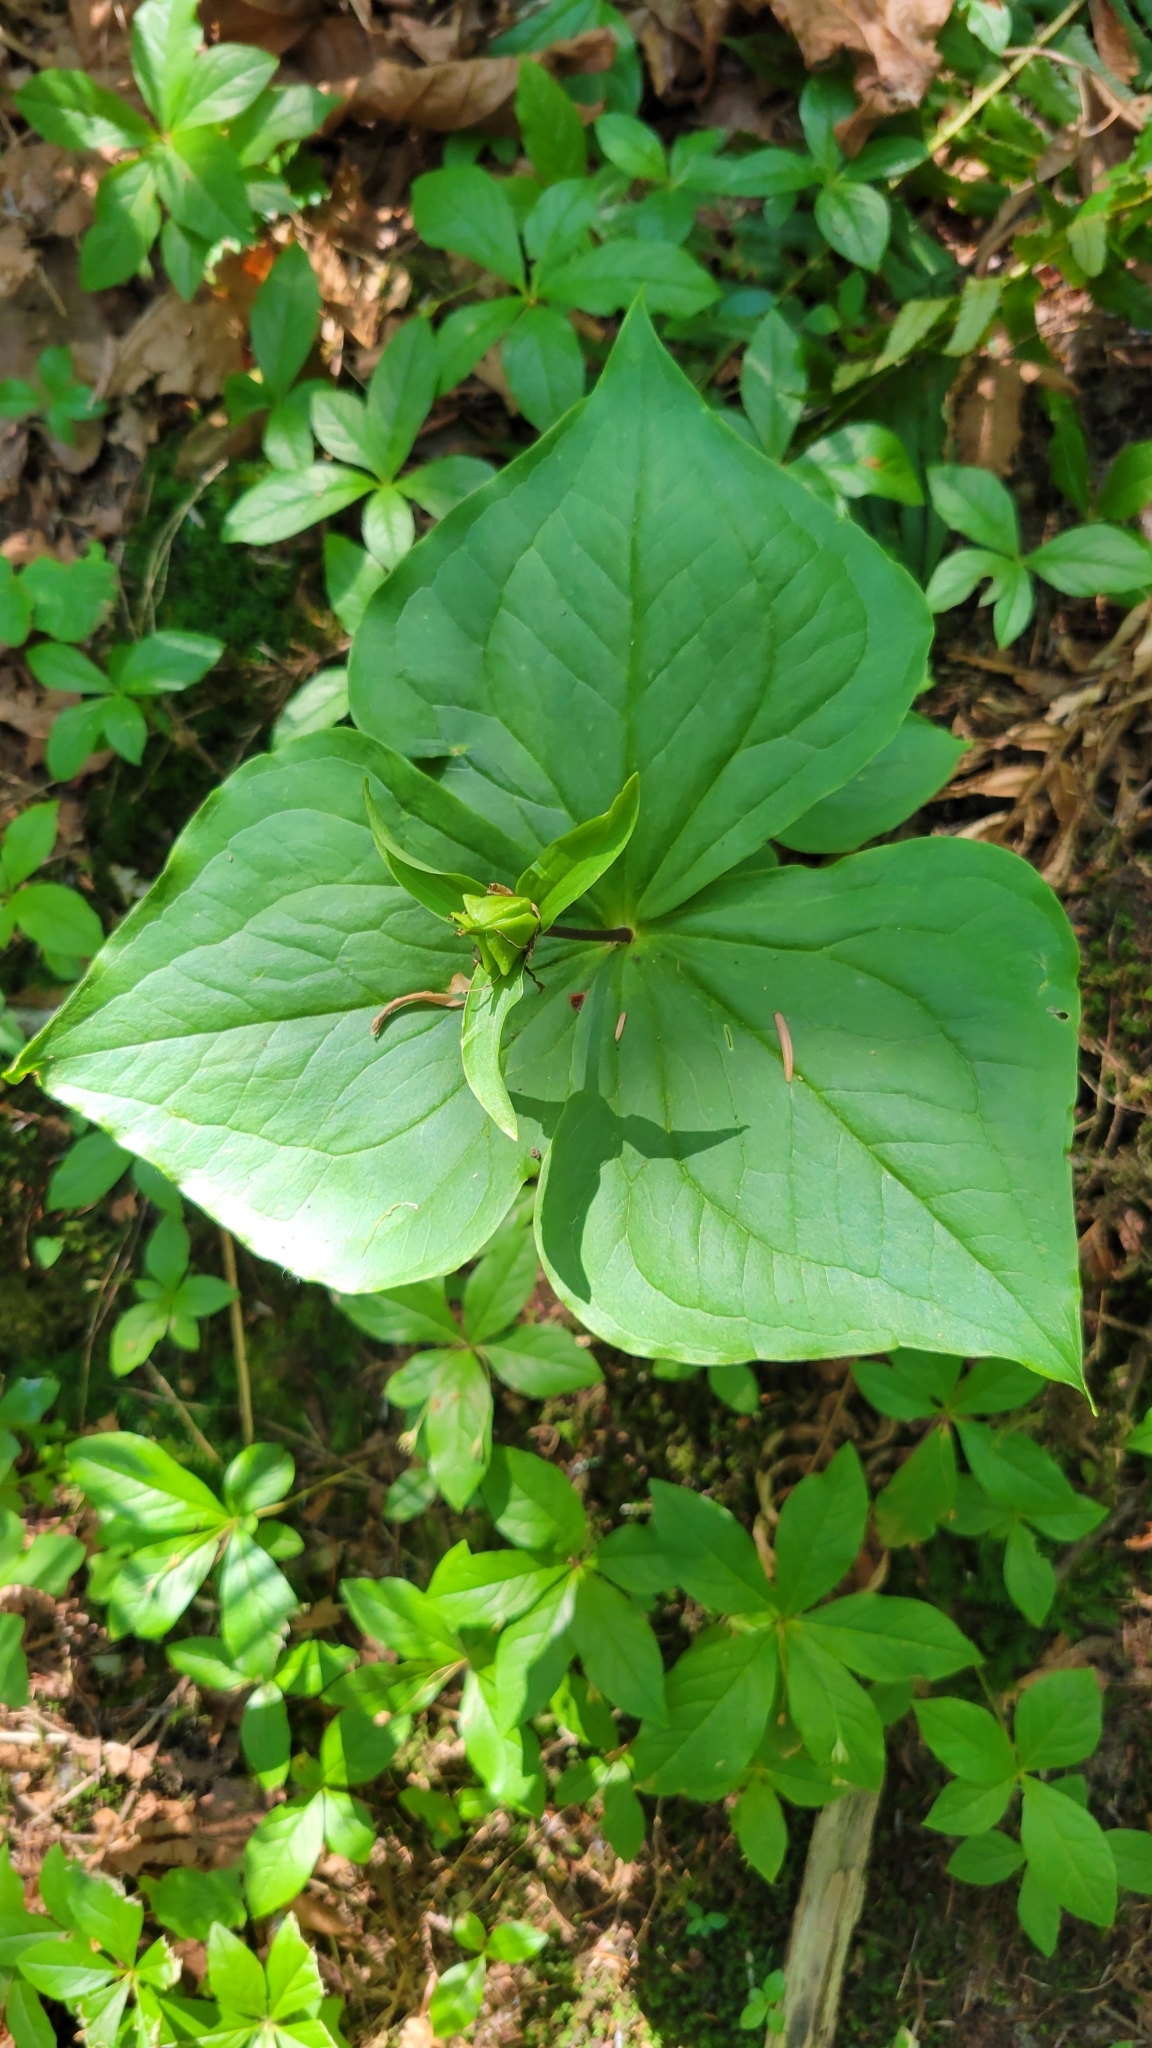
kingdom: Plantae
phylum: Tracheophyta
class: Liliopsida
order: Liliales
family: Melanthiaceae
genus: Trillium
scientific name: Trillium ovatum
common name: Pacific trillium
